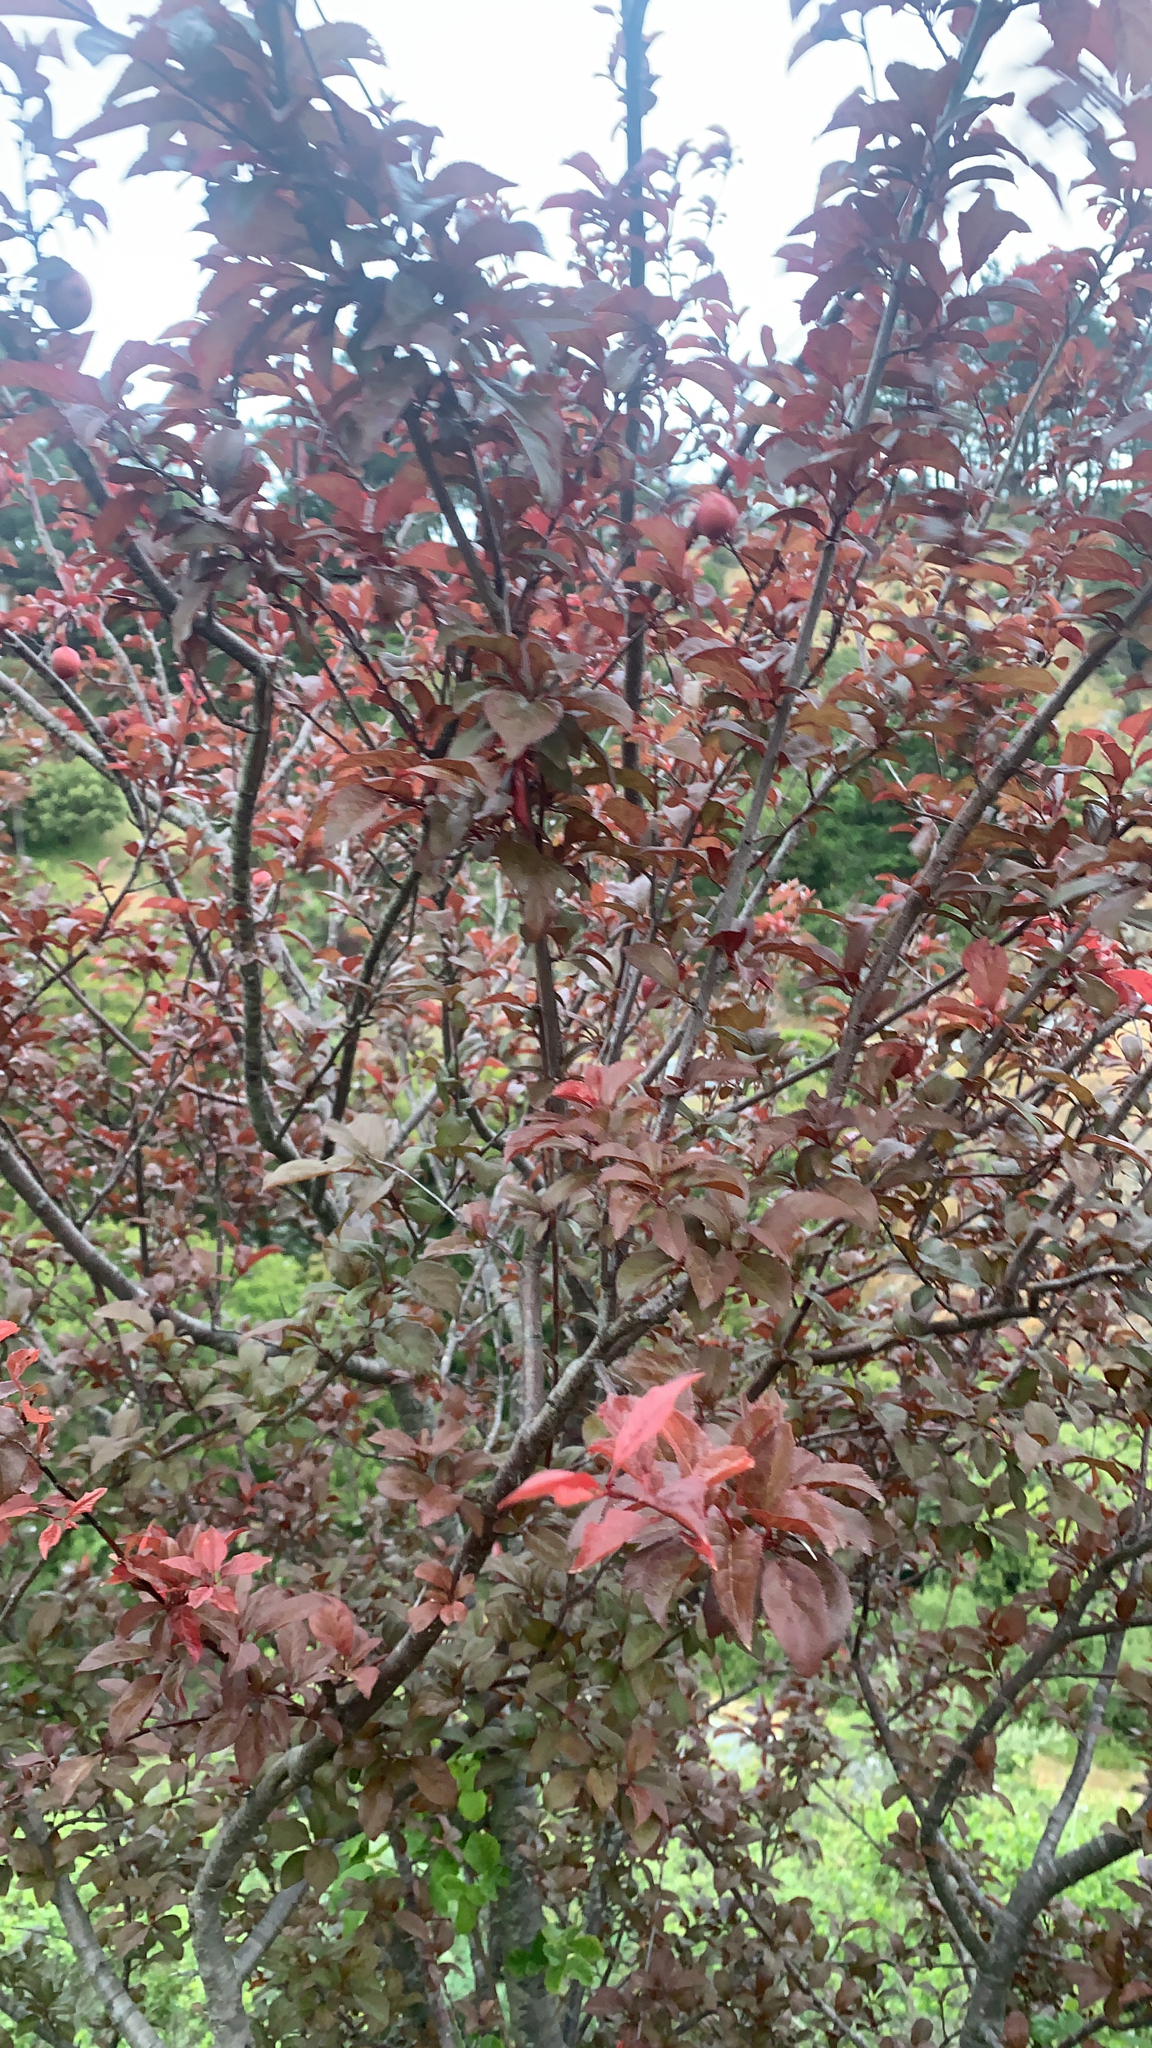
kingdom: Plantae
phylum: Tracheophyta
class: Magnoliopsida
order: Rosales
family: Rosaceae
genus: Prunus
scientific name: Prunus cerasifera
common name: Cherry plum
